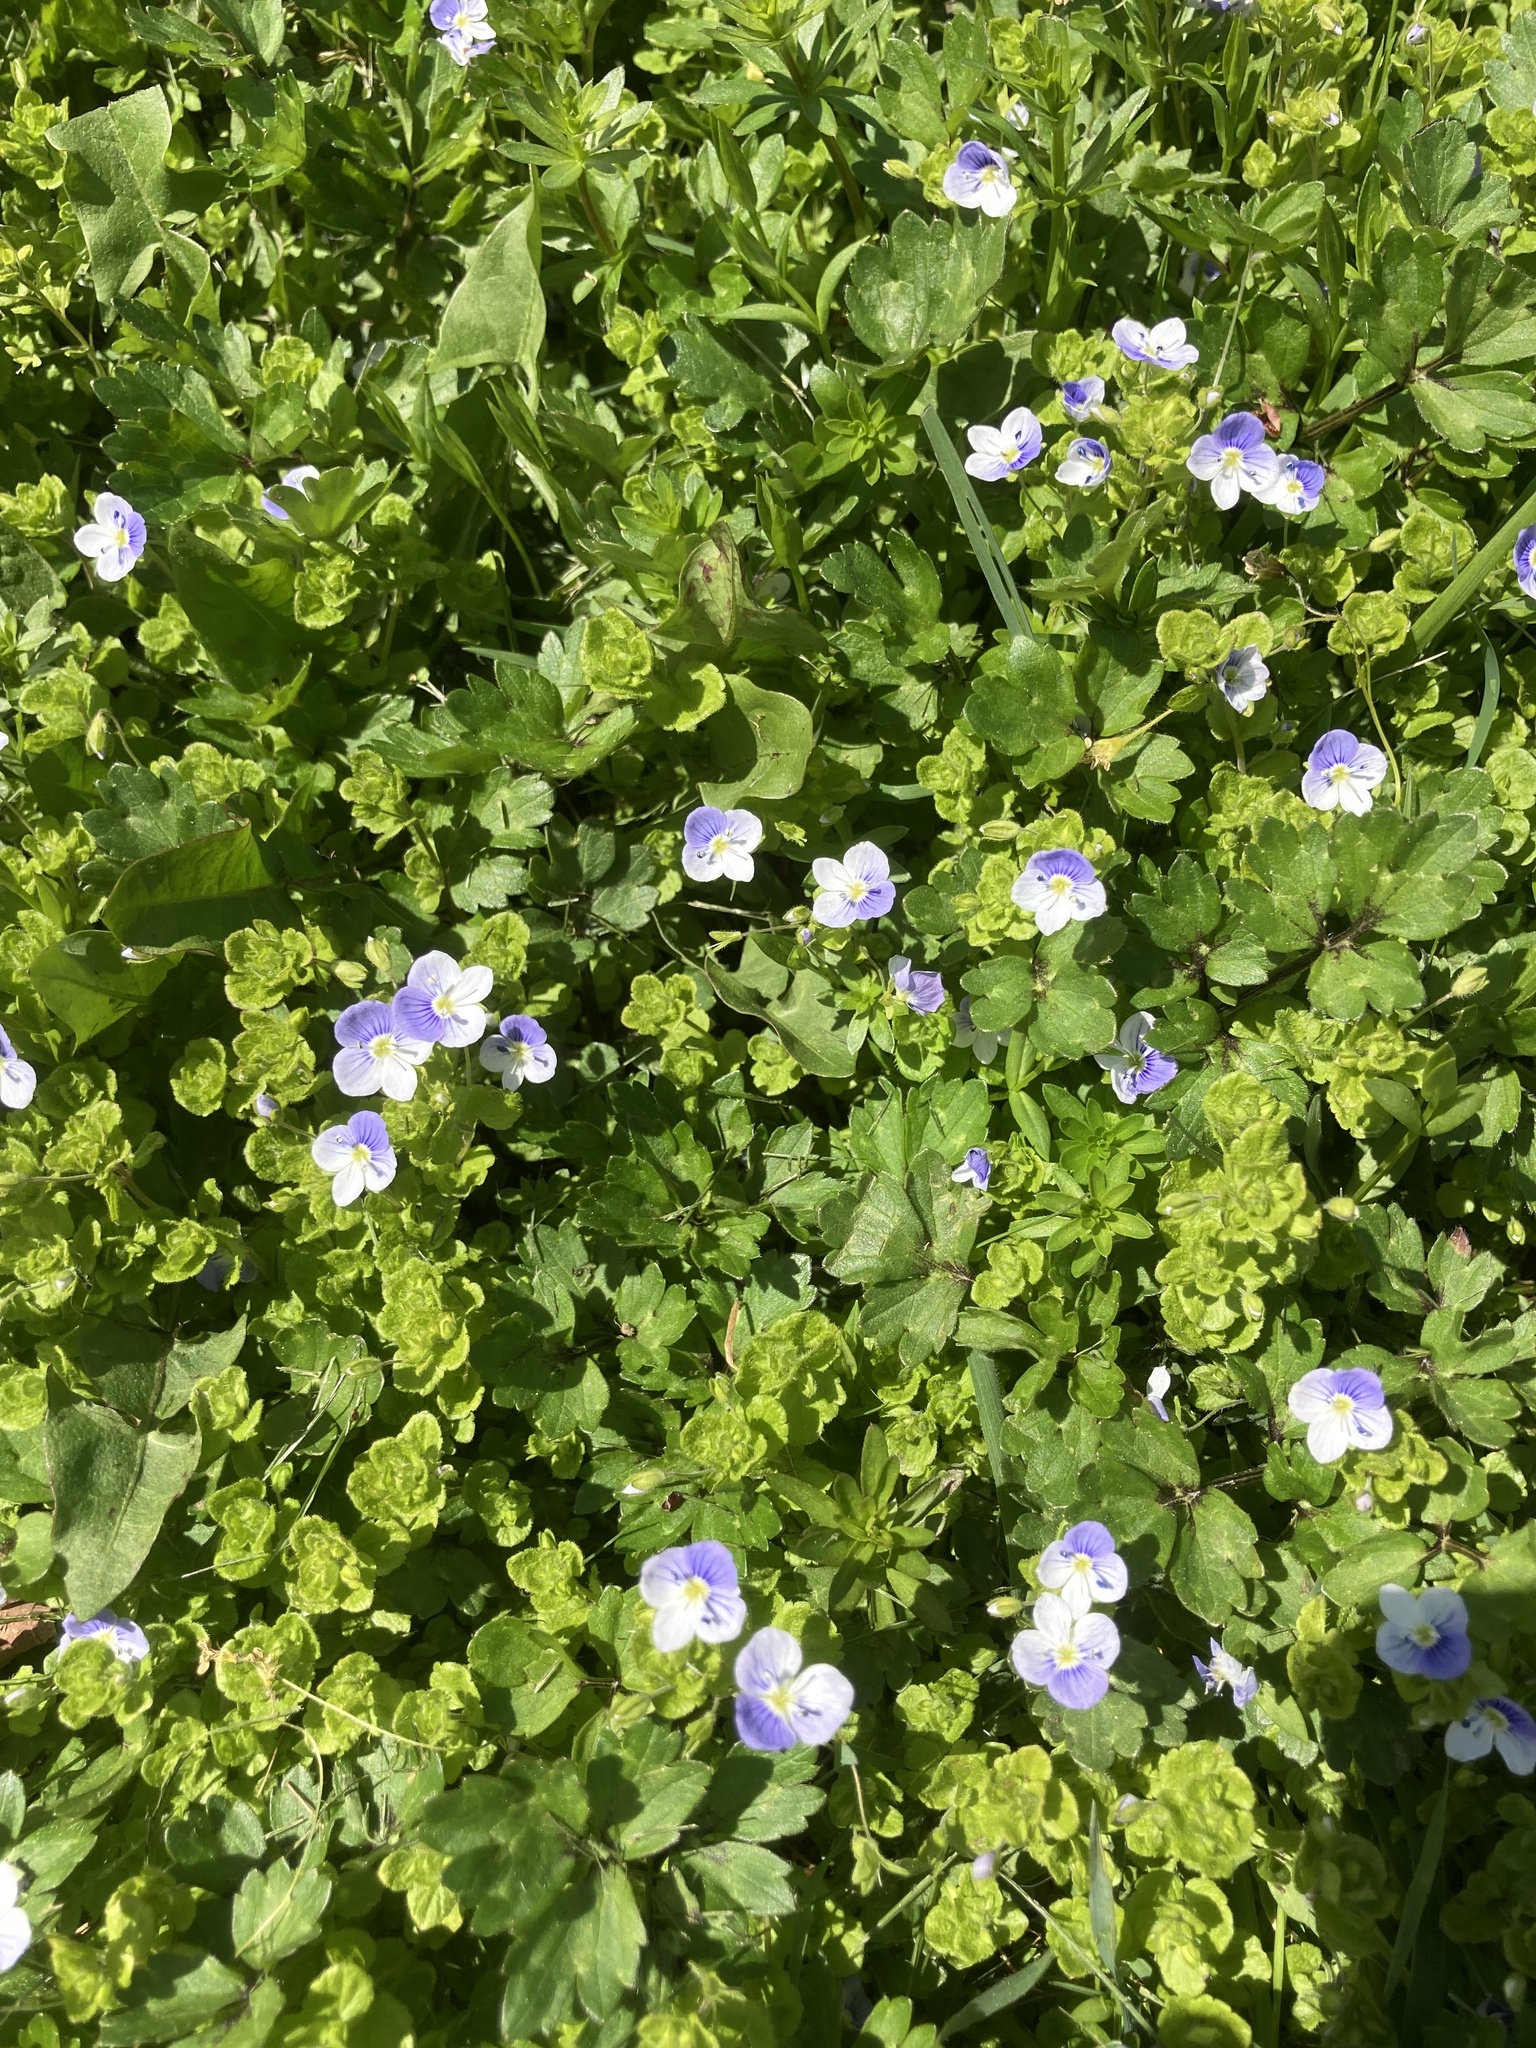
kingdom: Plantae
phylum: Tracheophyta
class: Magnoliopsida
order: Lamiales
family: Plantaginaceae
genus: Veronica
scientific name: Veronica filiformis
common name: Slender speedwell
